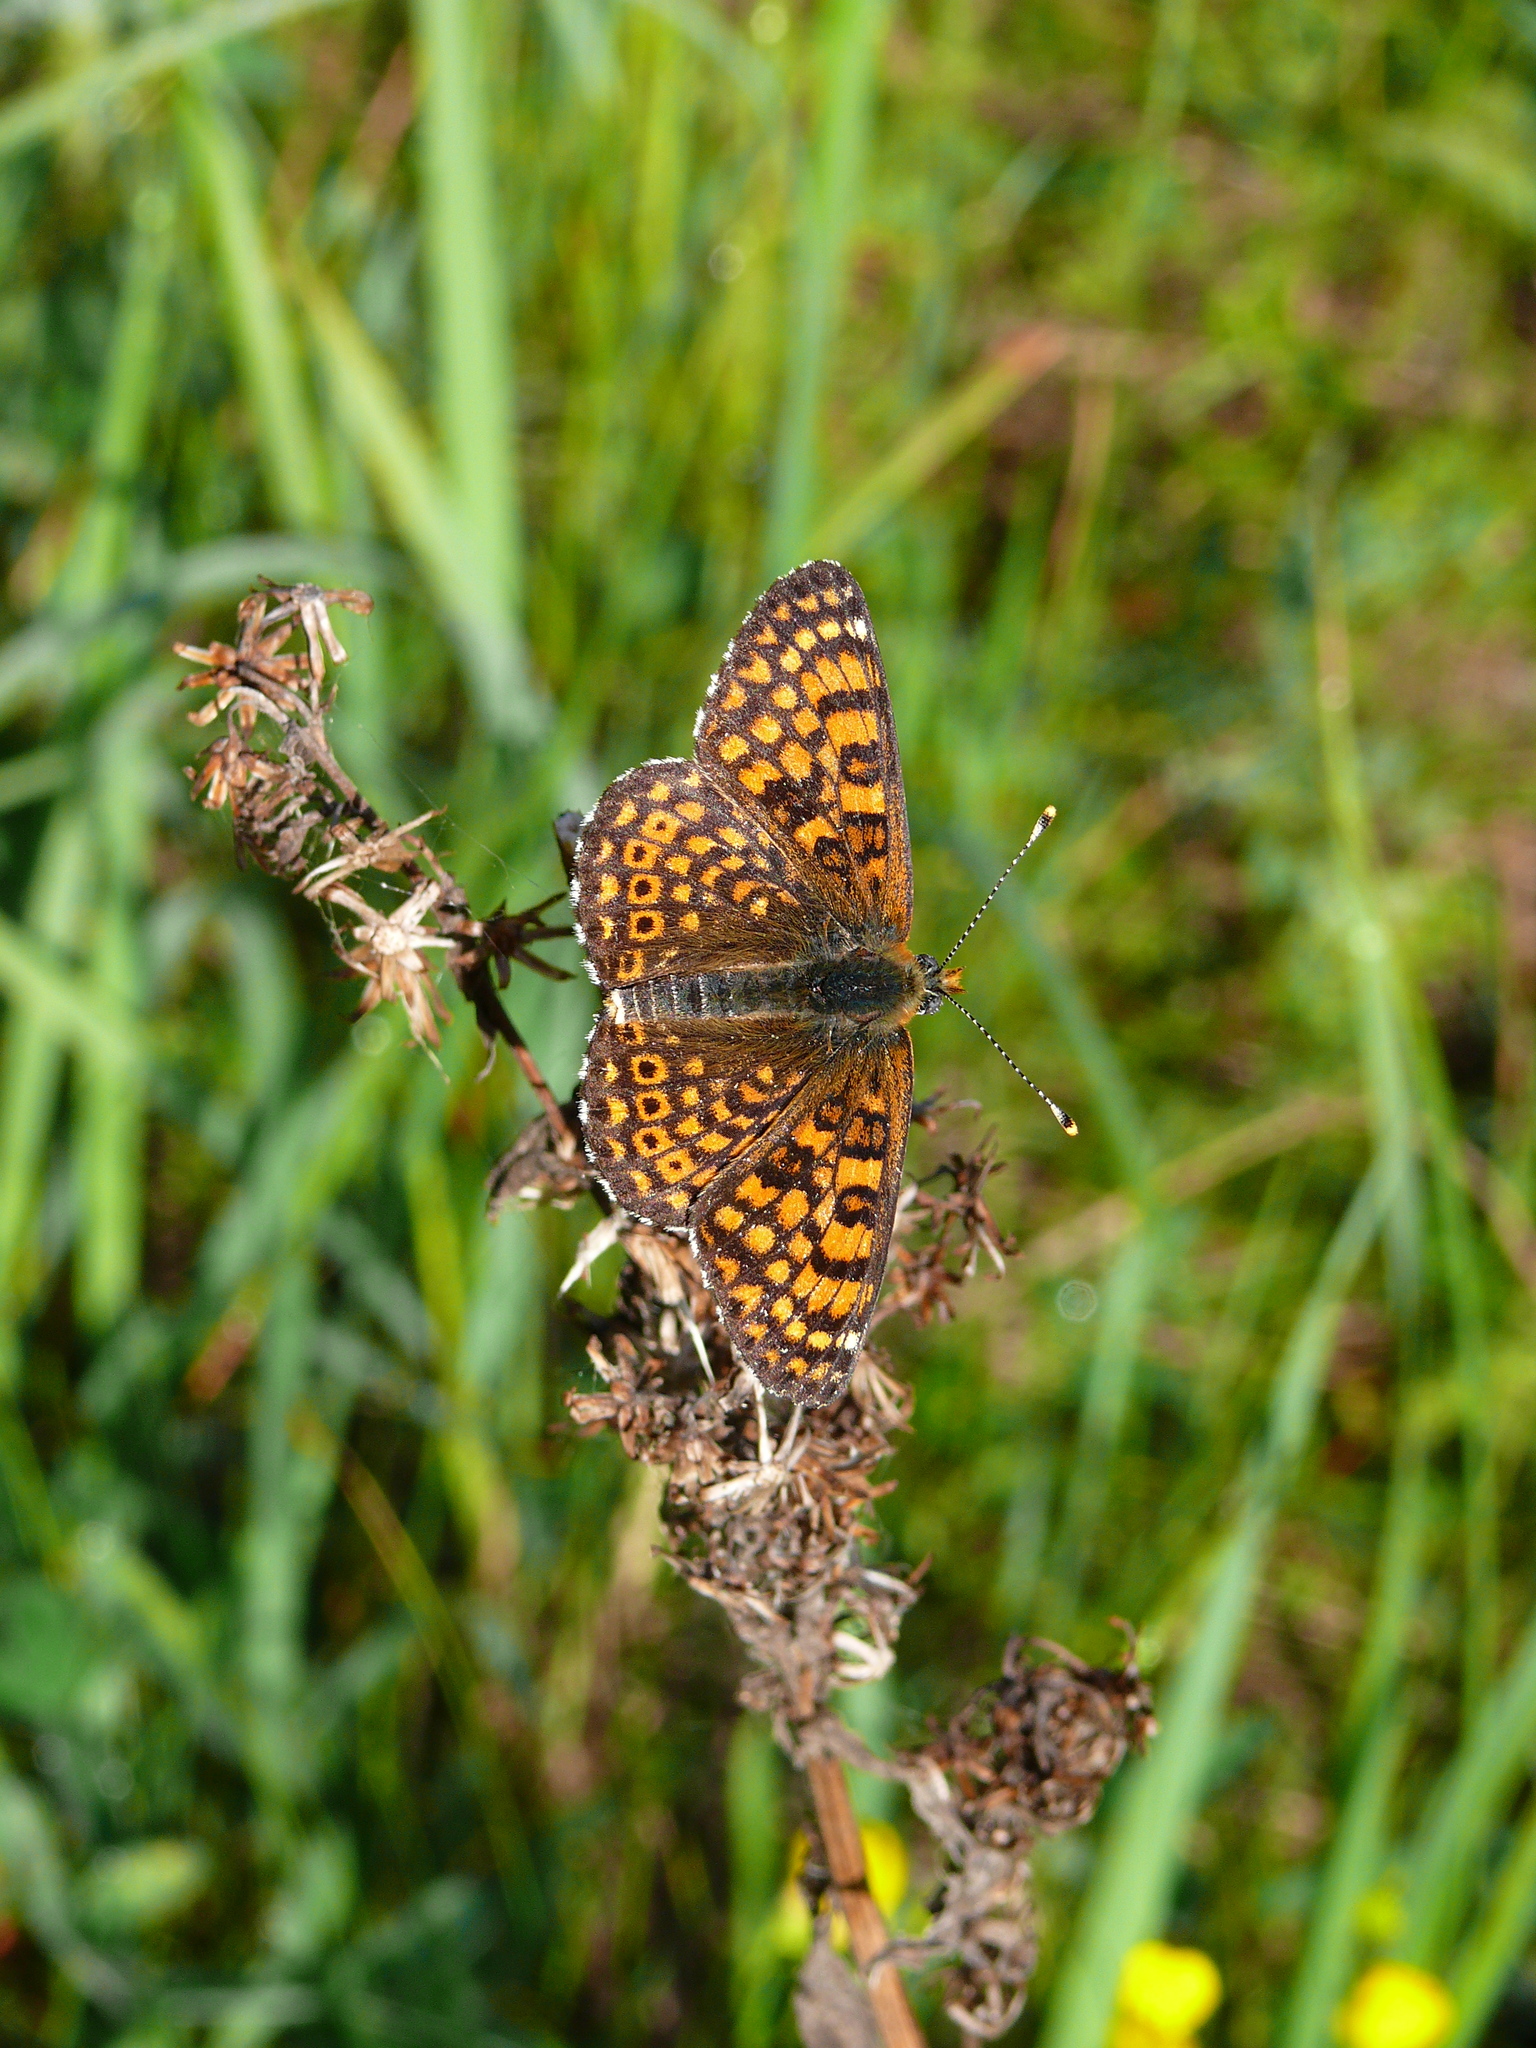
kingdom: Animalia
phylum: Arthropoda
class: Insecta
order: Lepidoptera
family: Nymphalidae
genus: Melitaea
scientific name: Melitaea cinxia
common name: Glanville fritillary
